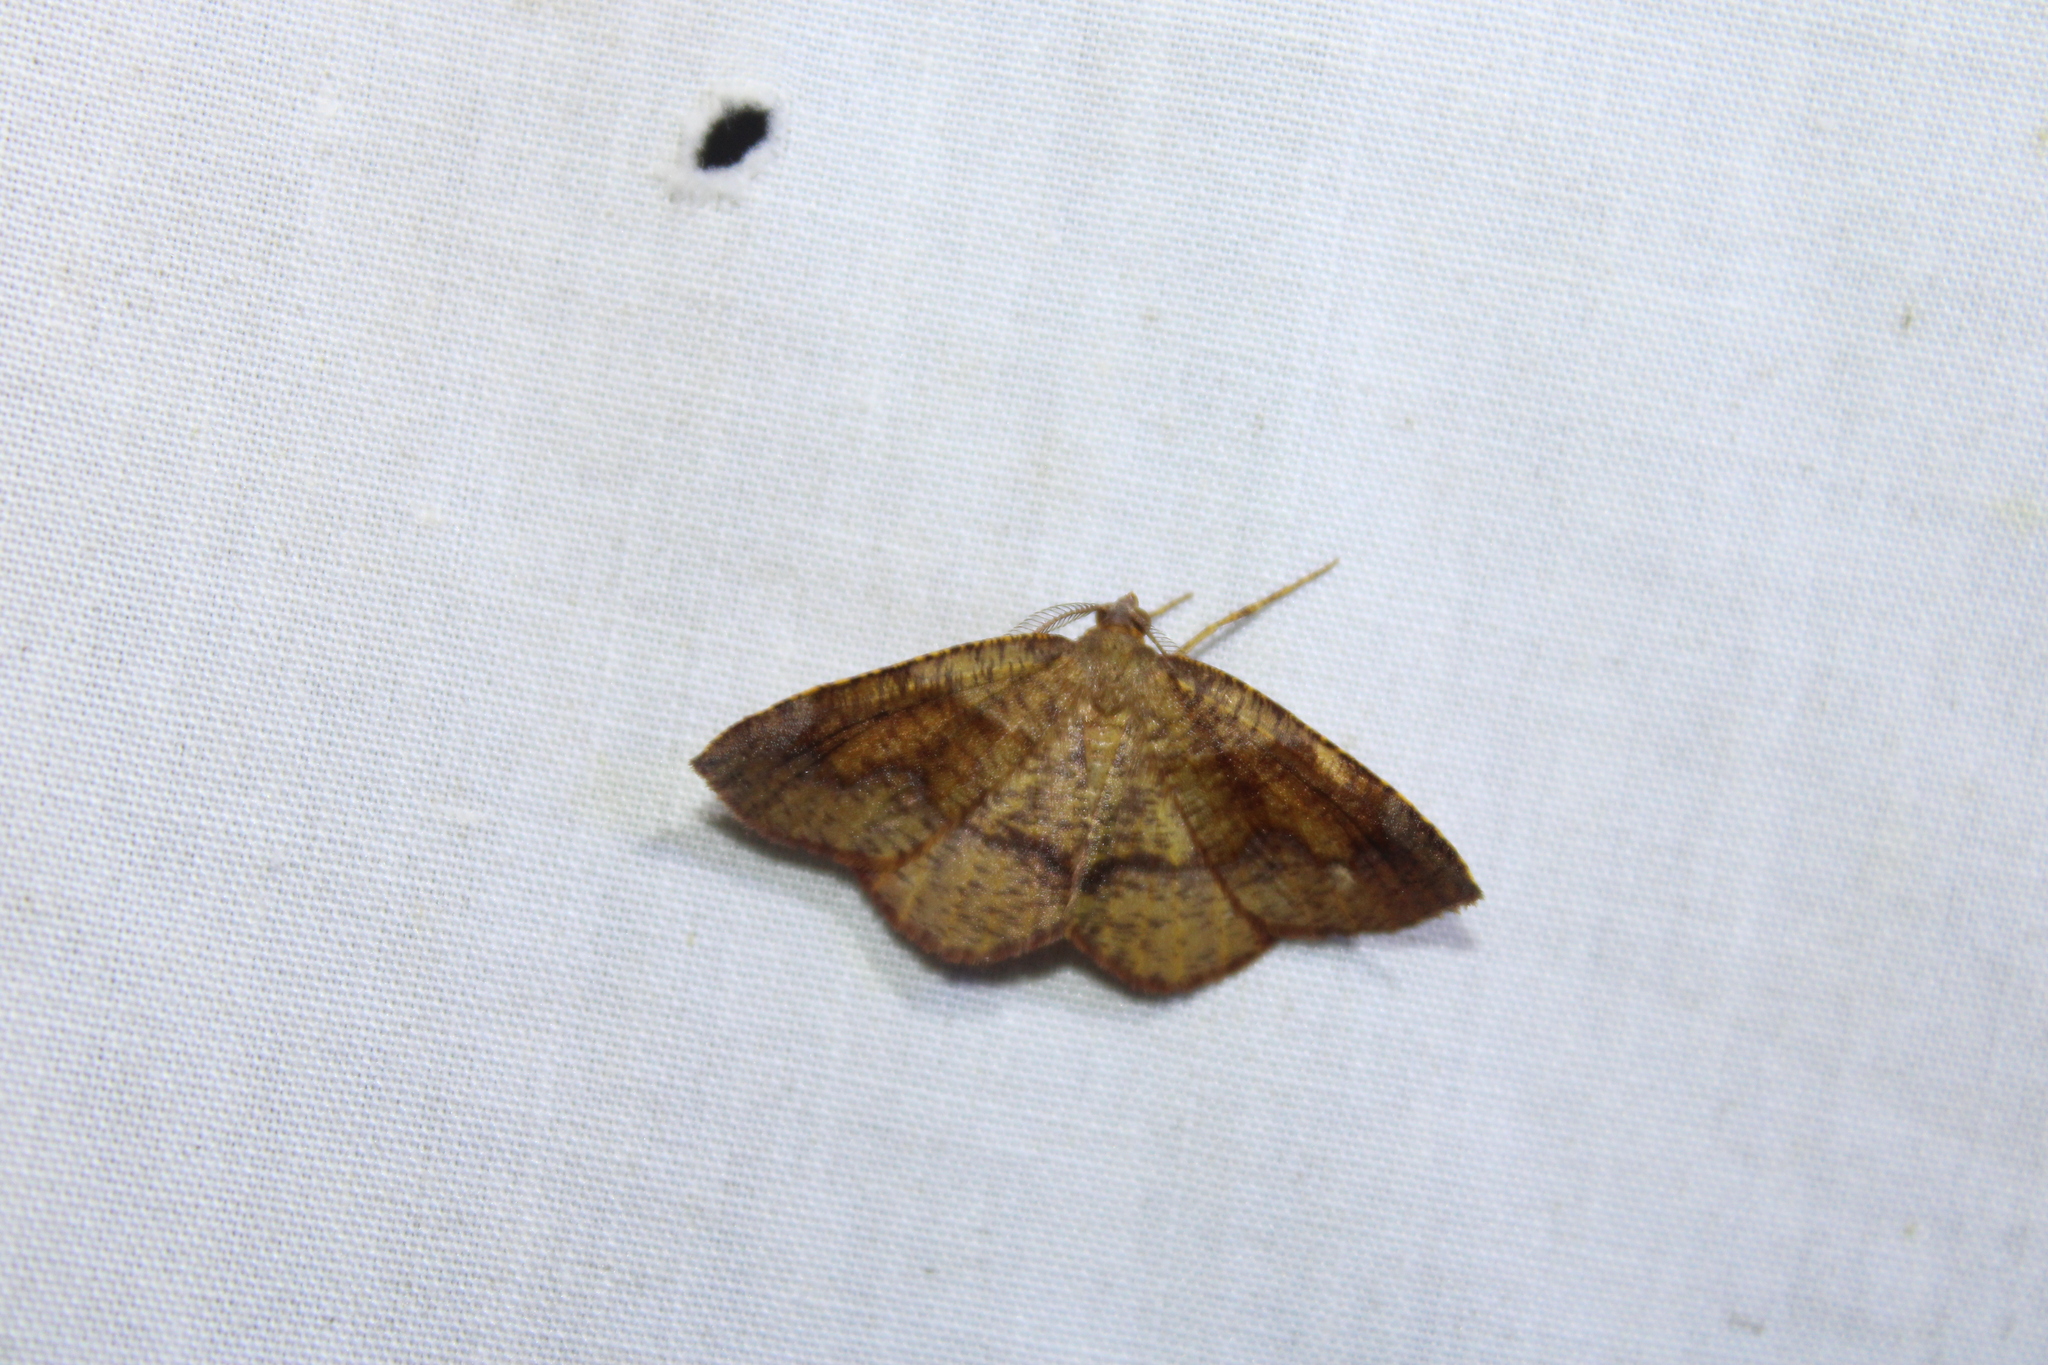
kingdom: Animalia
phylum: Arthropoda
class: Insecta
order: Lepidoptera
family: Geometridae
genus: Plagodis
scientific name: Plagodis pulveraria
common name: Barred umber
